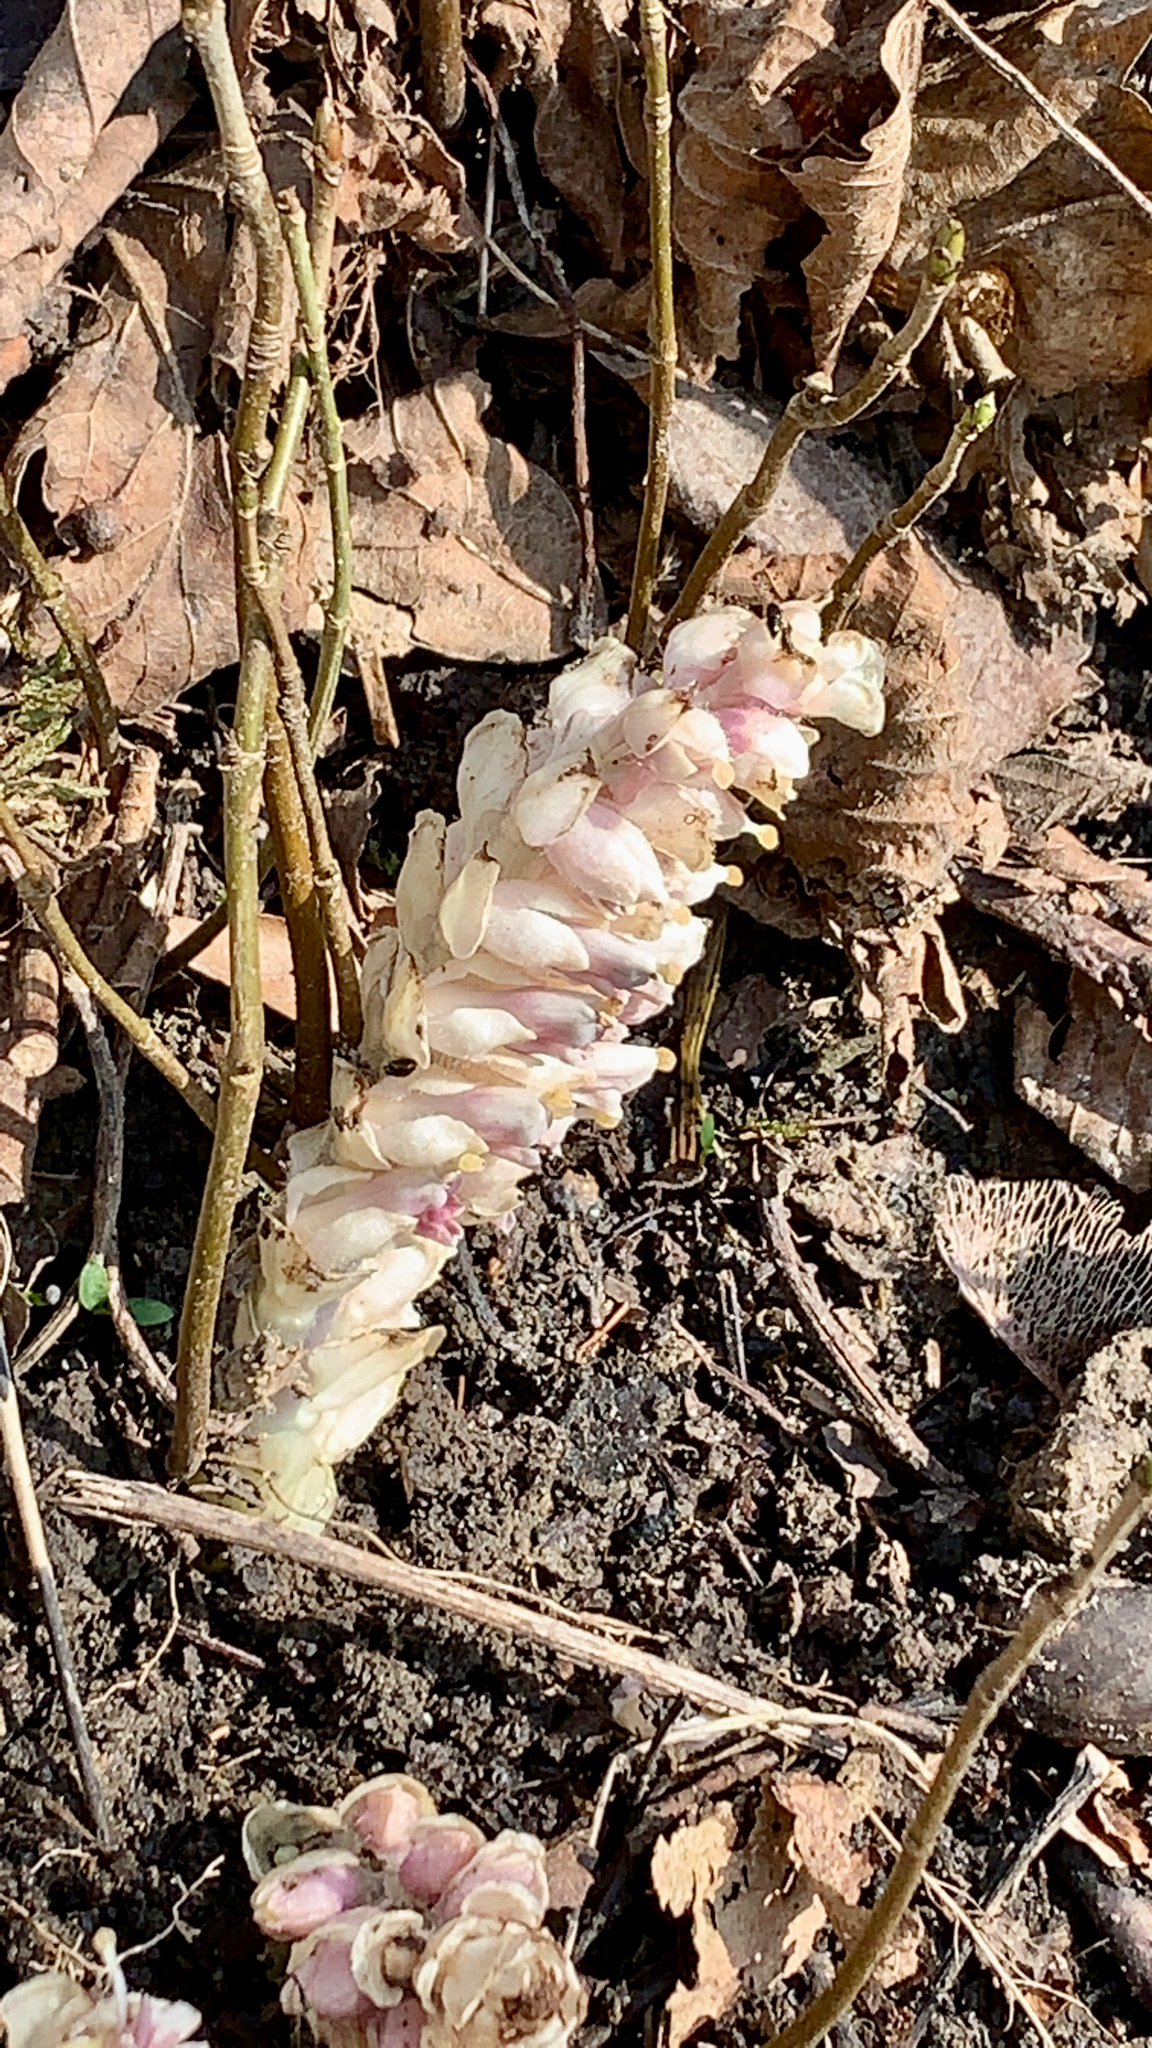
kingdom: Plantae
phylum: Tracheophyta
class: Magnoliopsida
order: Lamiales
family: Orobanchaceae
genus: Lathraea
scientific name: Lathraea squamaria
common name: Toothwort
